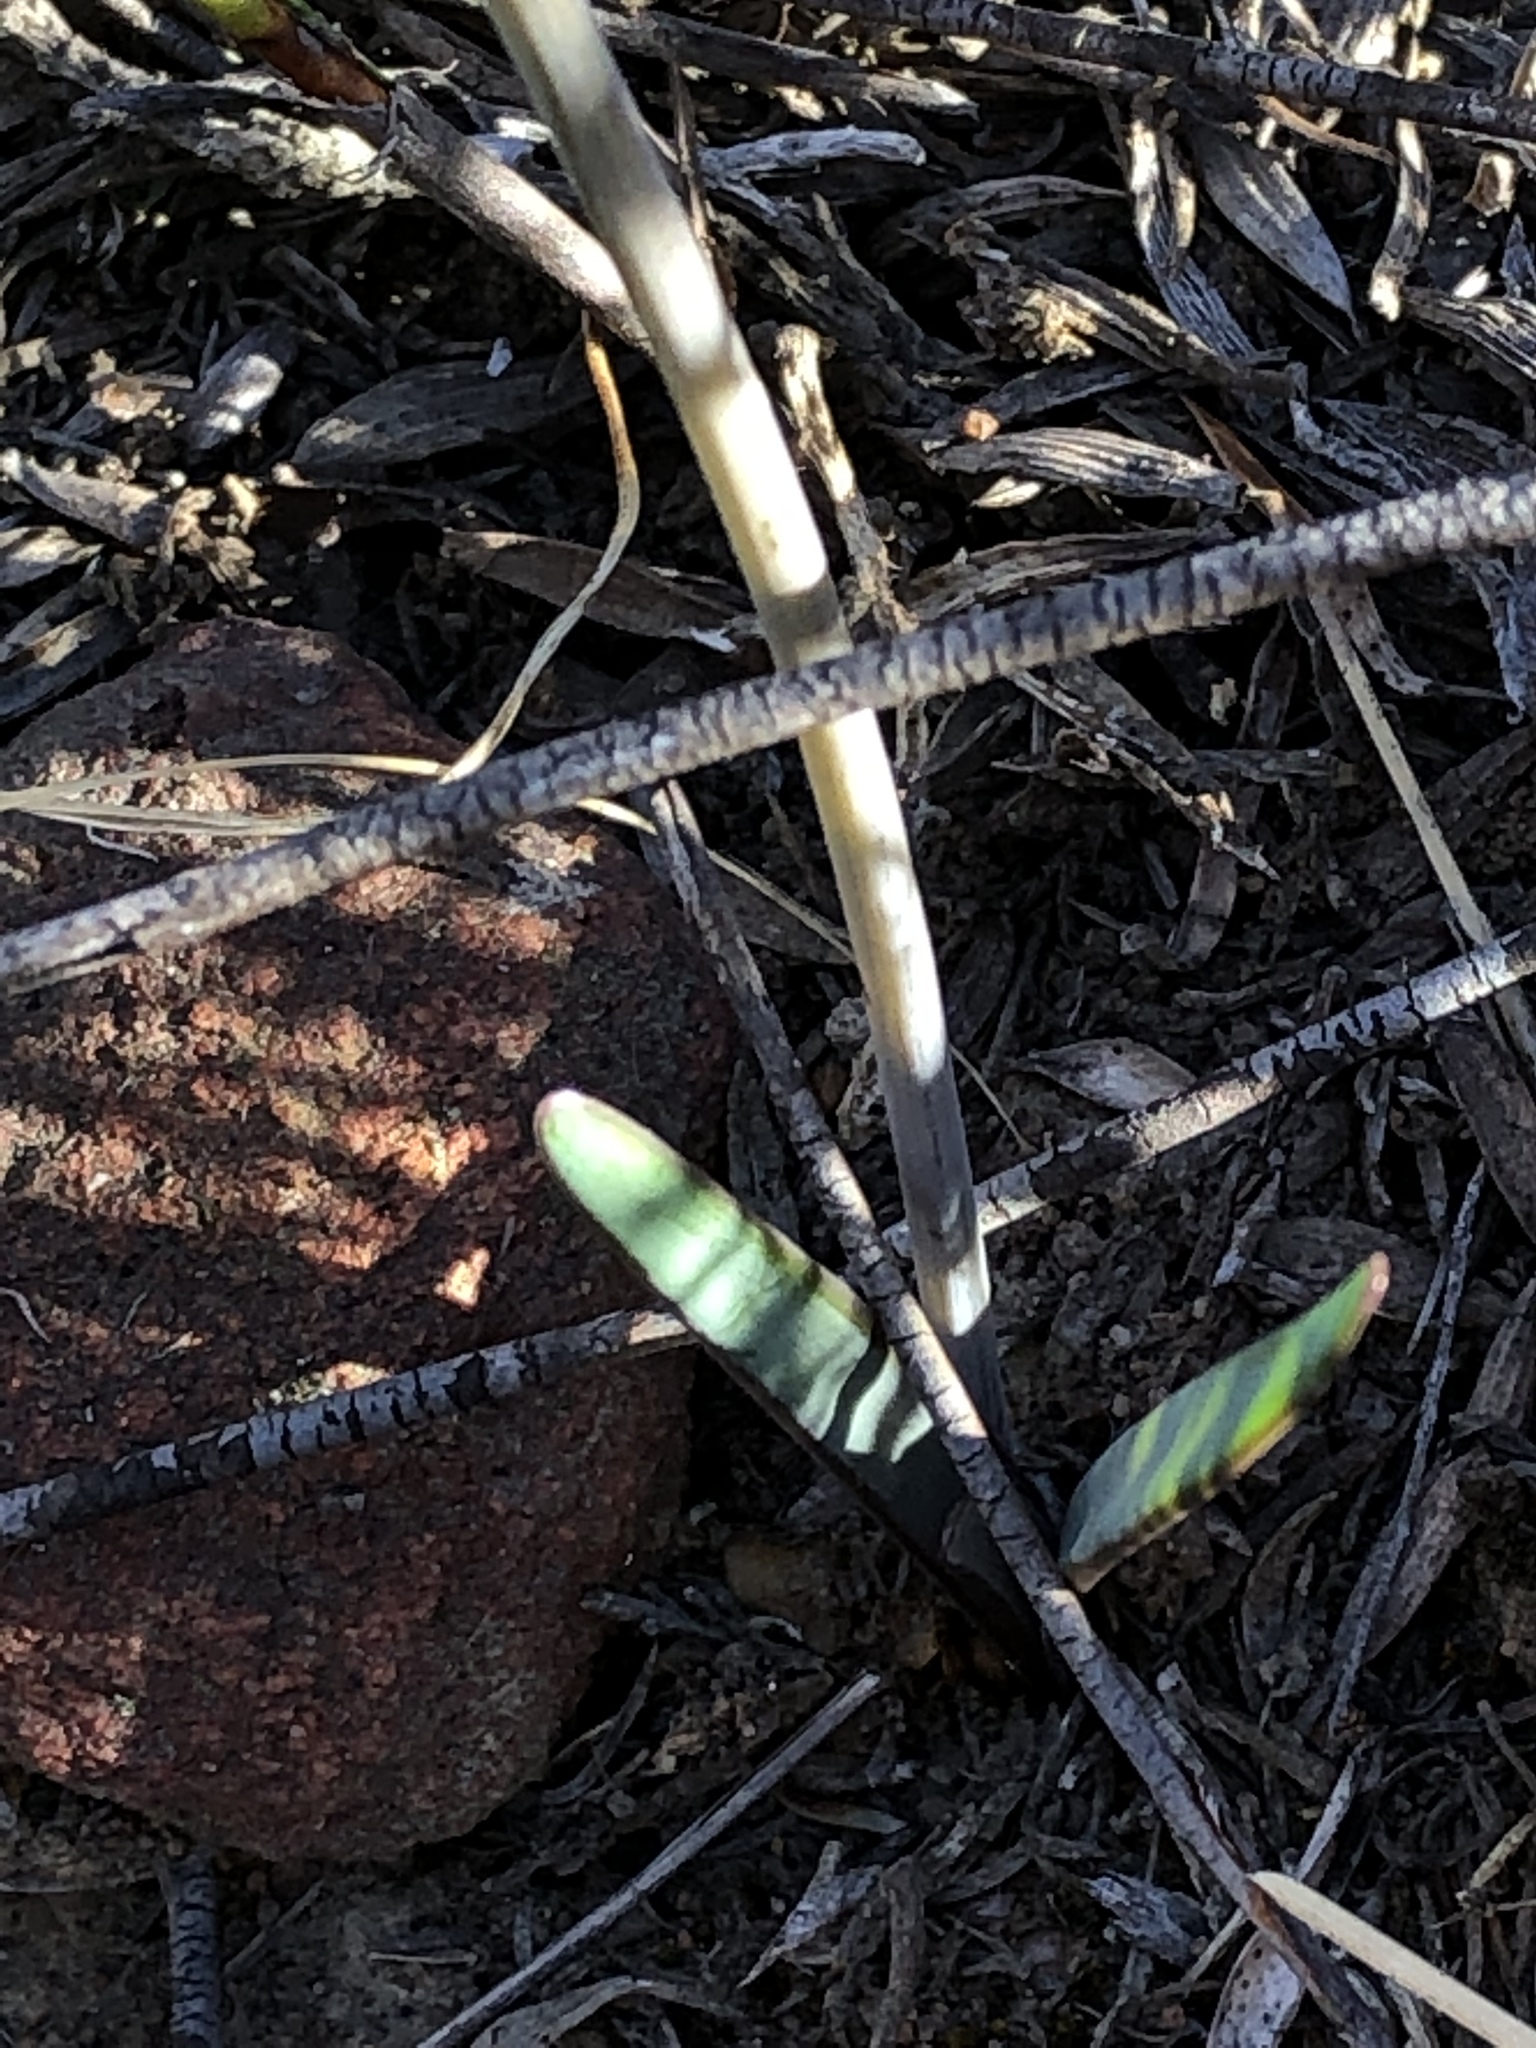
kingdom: Plantae
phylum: Tracheophyta
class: Liliopsida
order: Asparagales
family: Amaryllidaceae
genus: Tulbaghia
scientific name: Tulbaghia capensis
